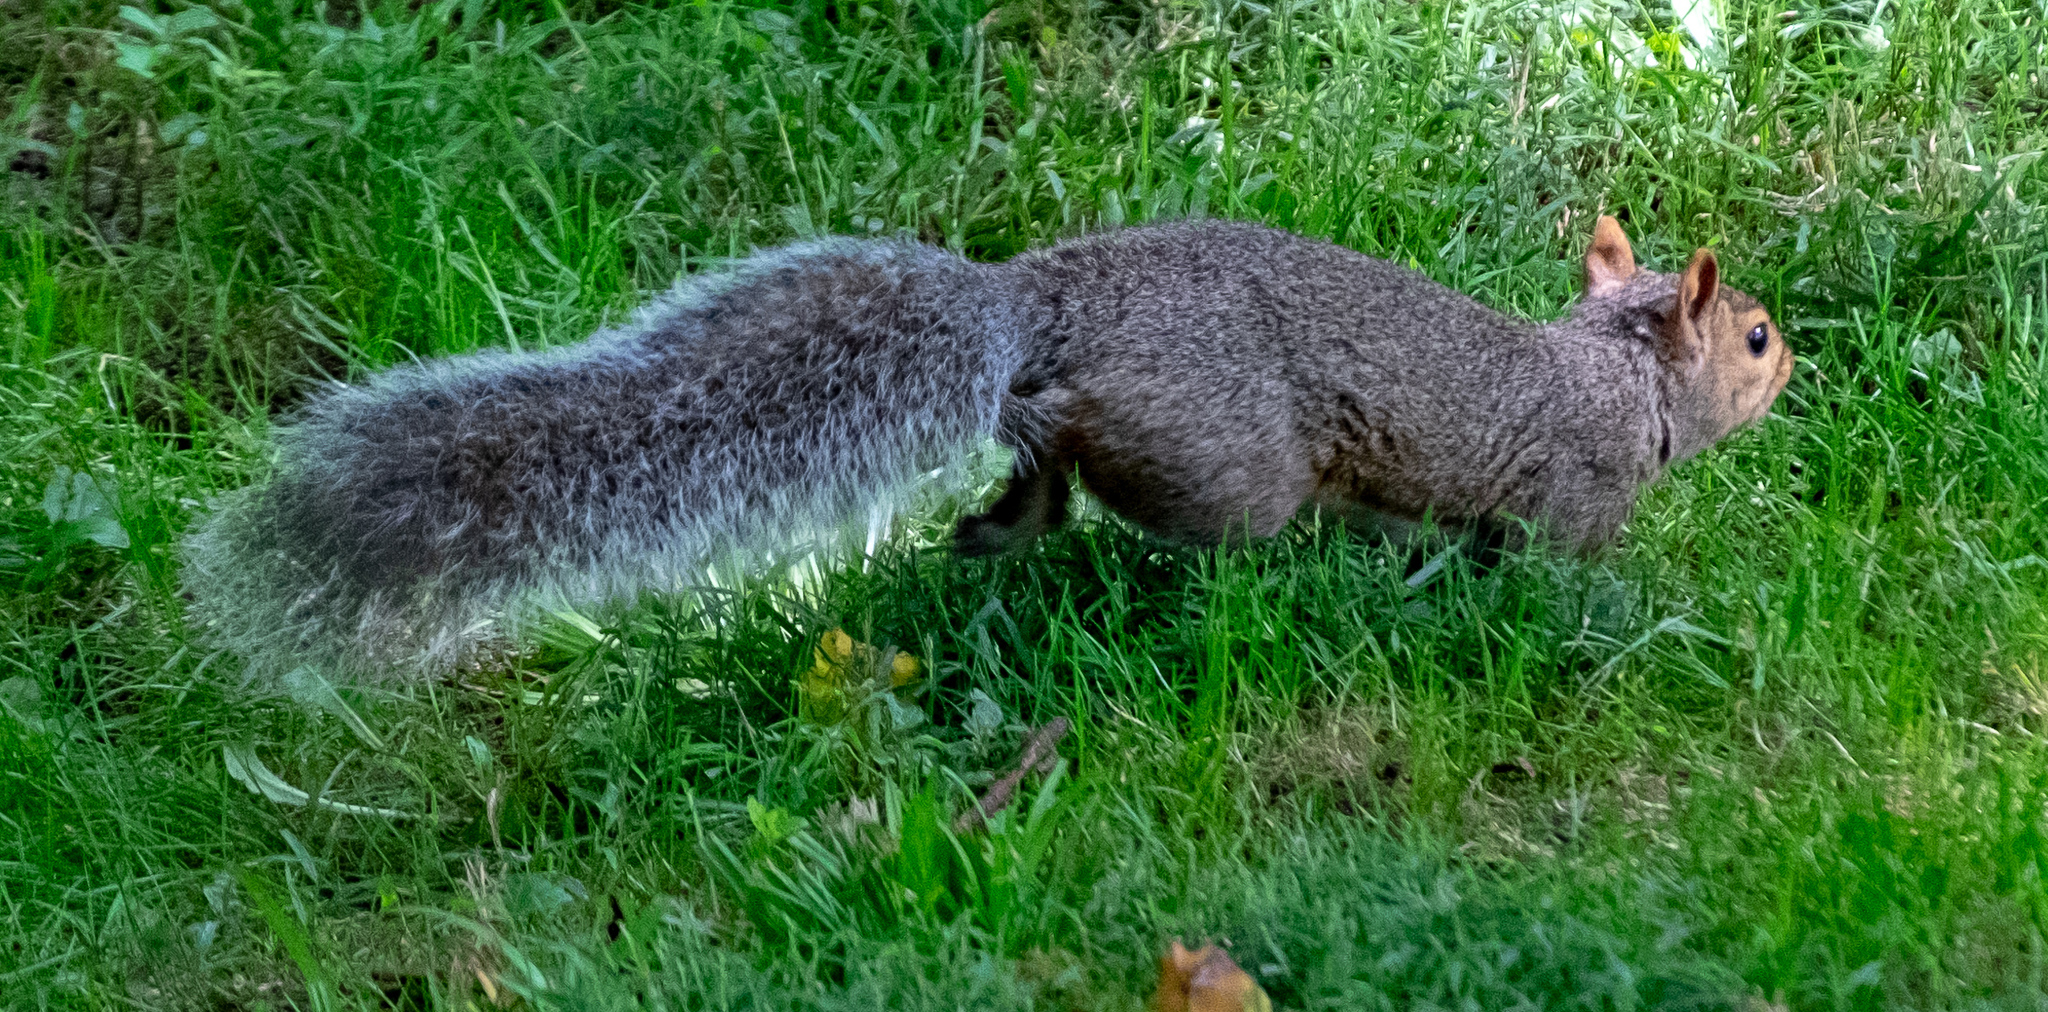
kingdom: Animalia
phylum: Chordata
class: Mammalia
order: Rodentia
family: Sciuridae
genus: Sciurus
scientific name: Sciurus carolinensis
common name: Eastern gray squirrel
